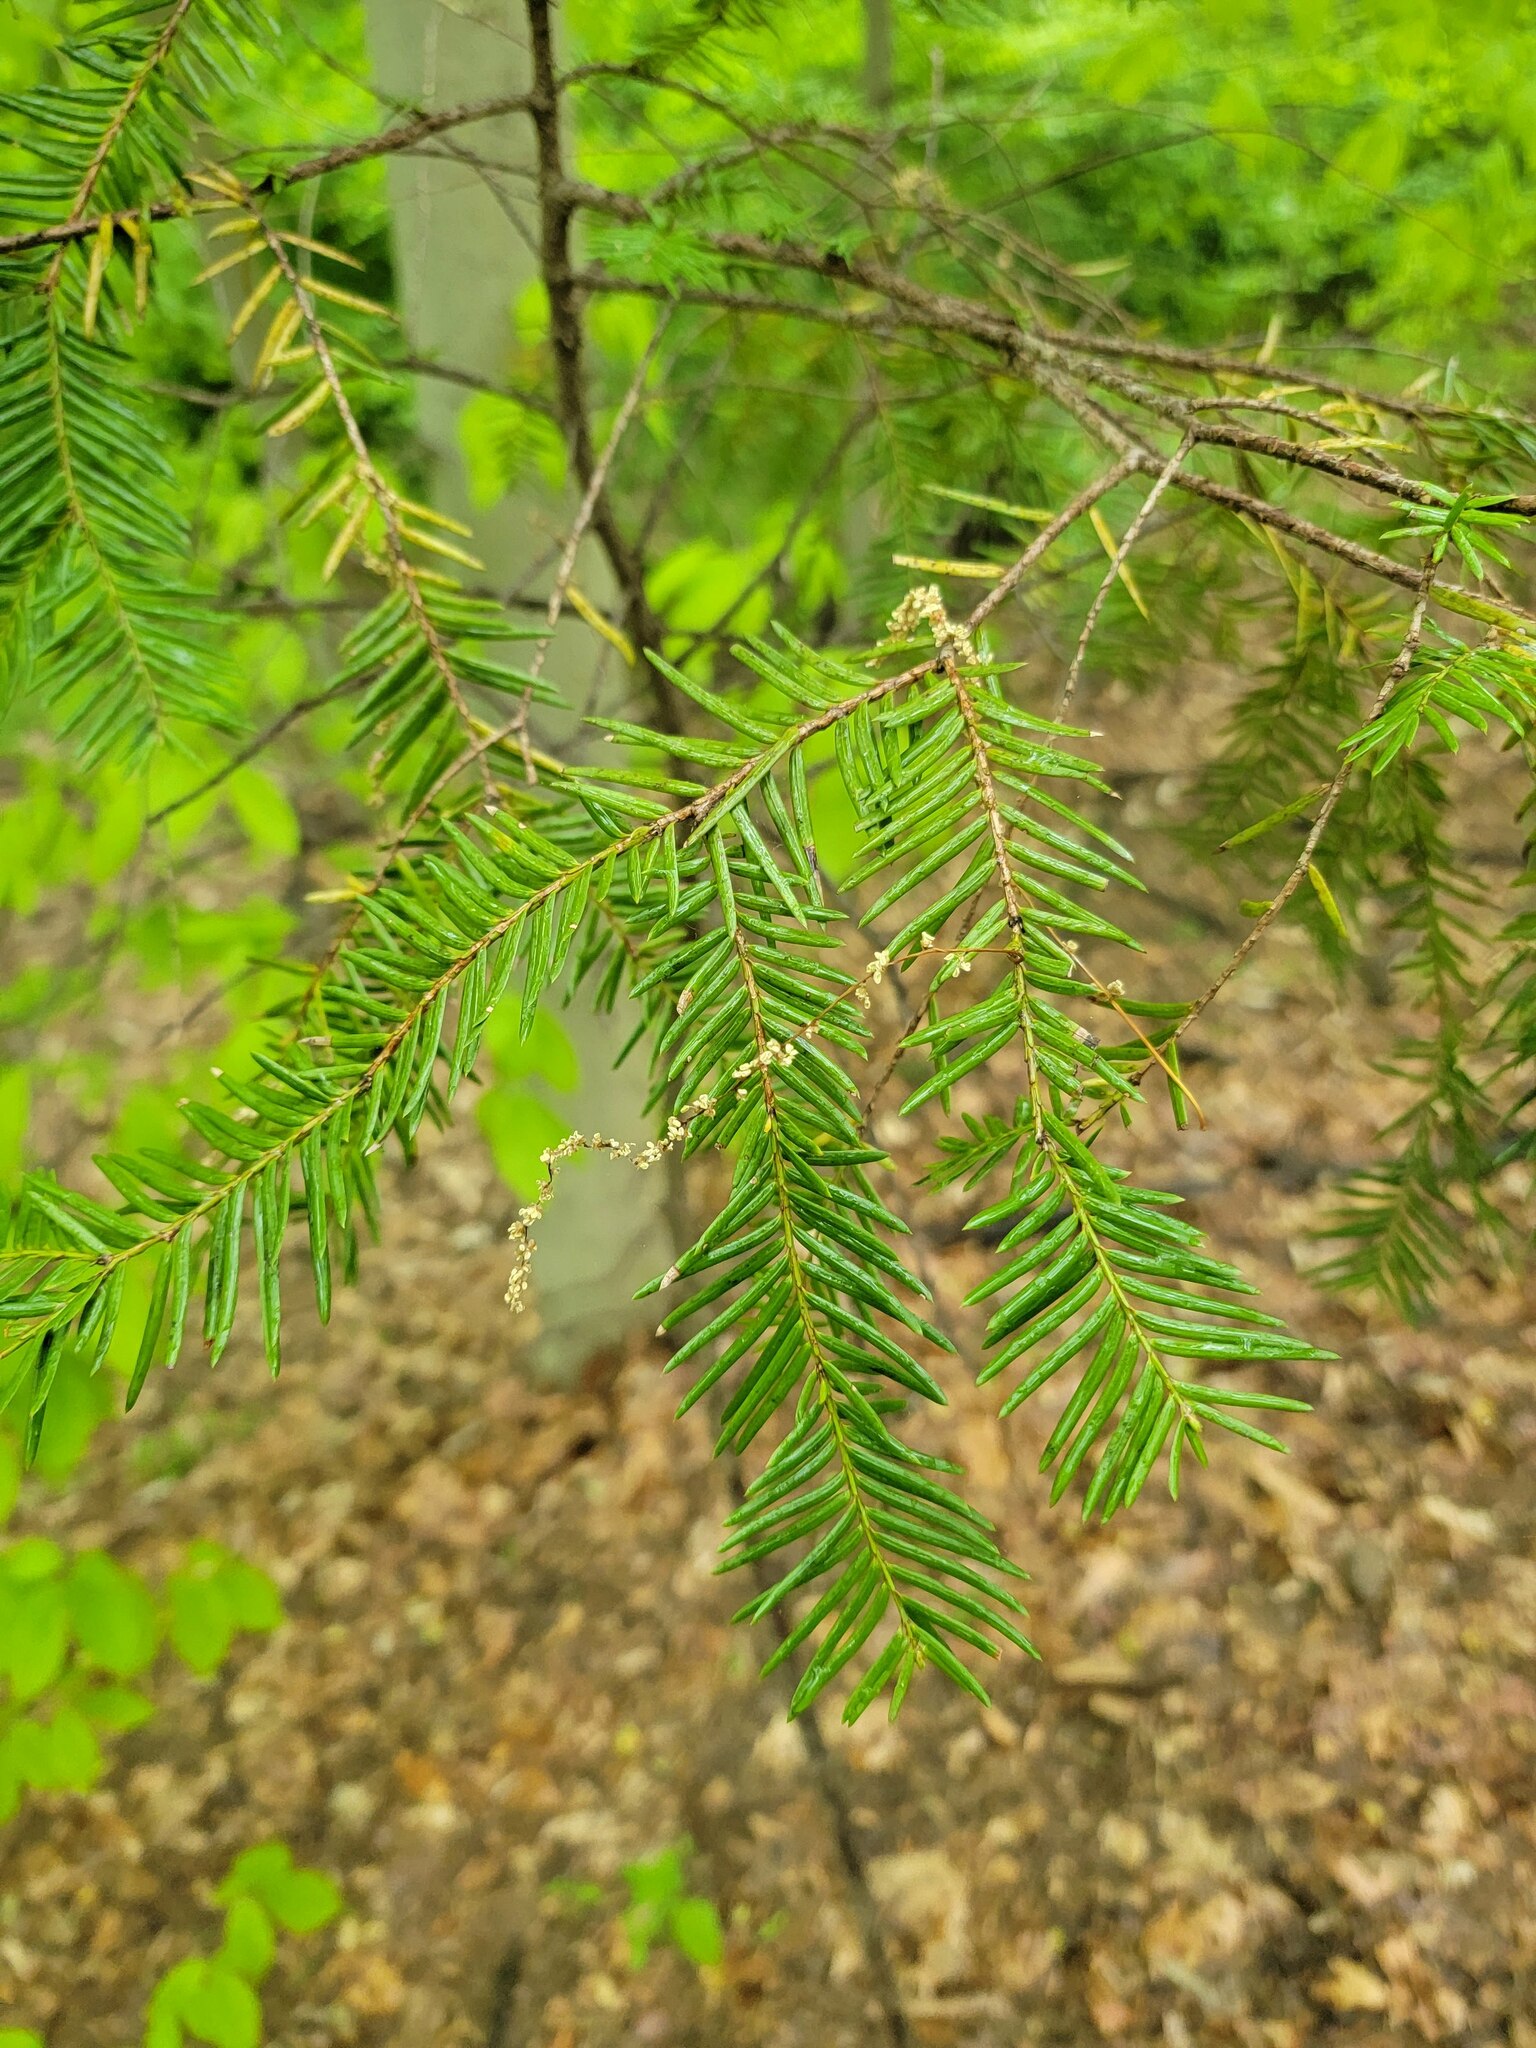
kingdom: Plantae
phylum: Tracheophyta
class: Pinopsida
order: Pinales
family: Pinaceae
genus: Tsuga
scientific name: Tsuga canadensis
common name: Eastern hemlock
